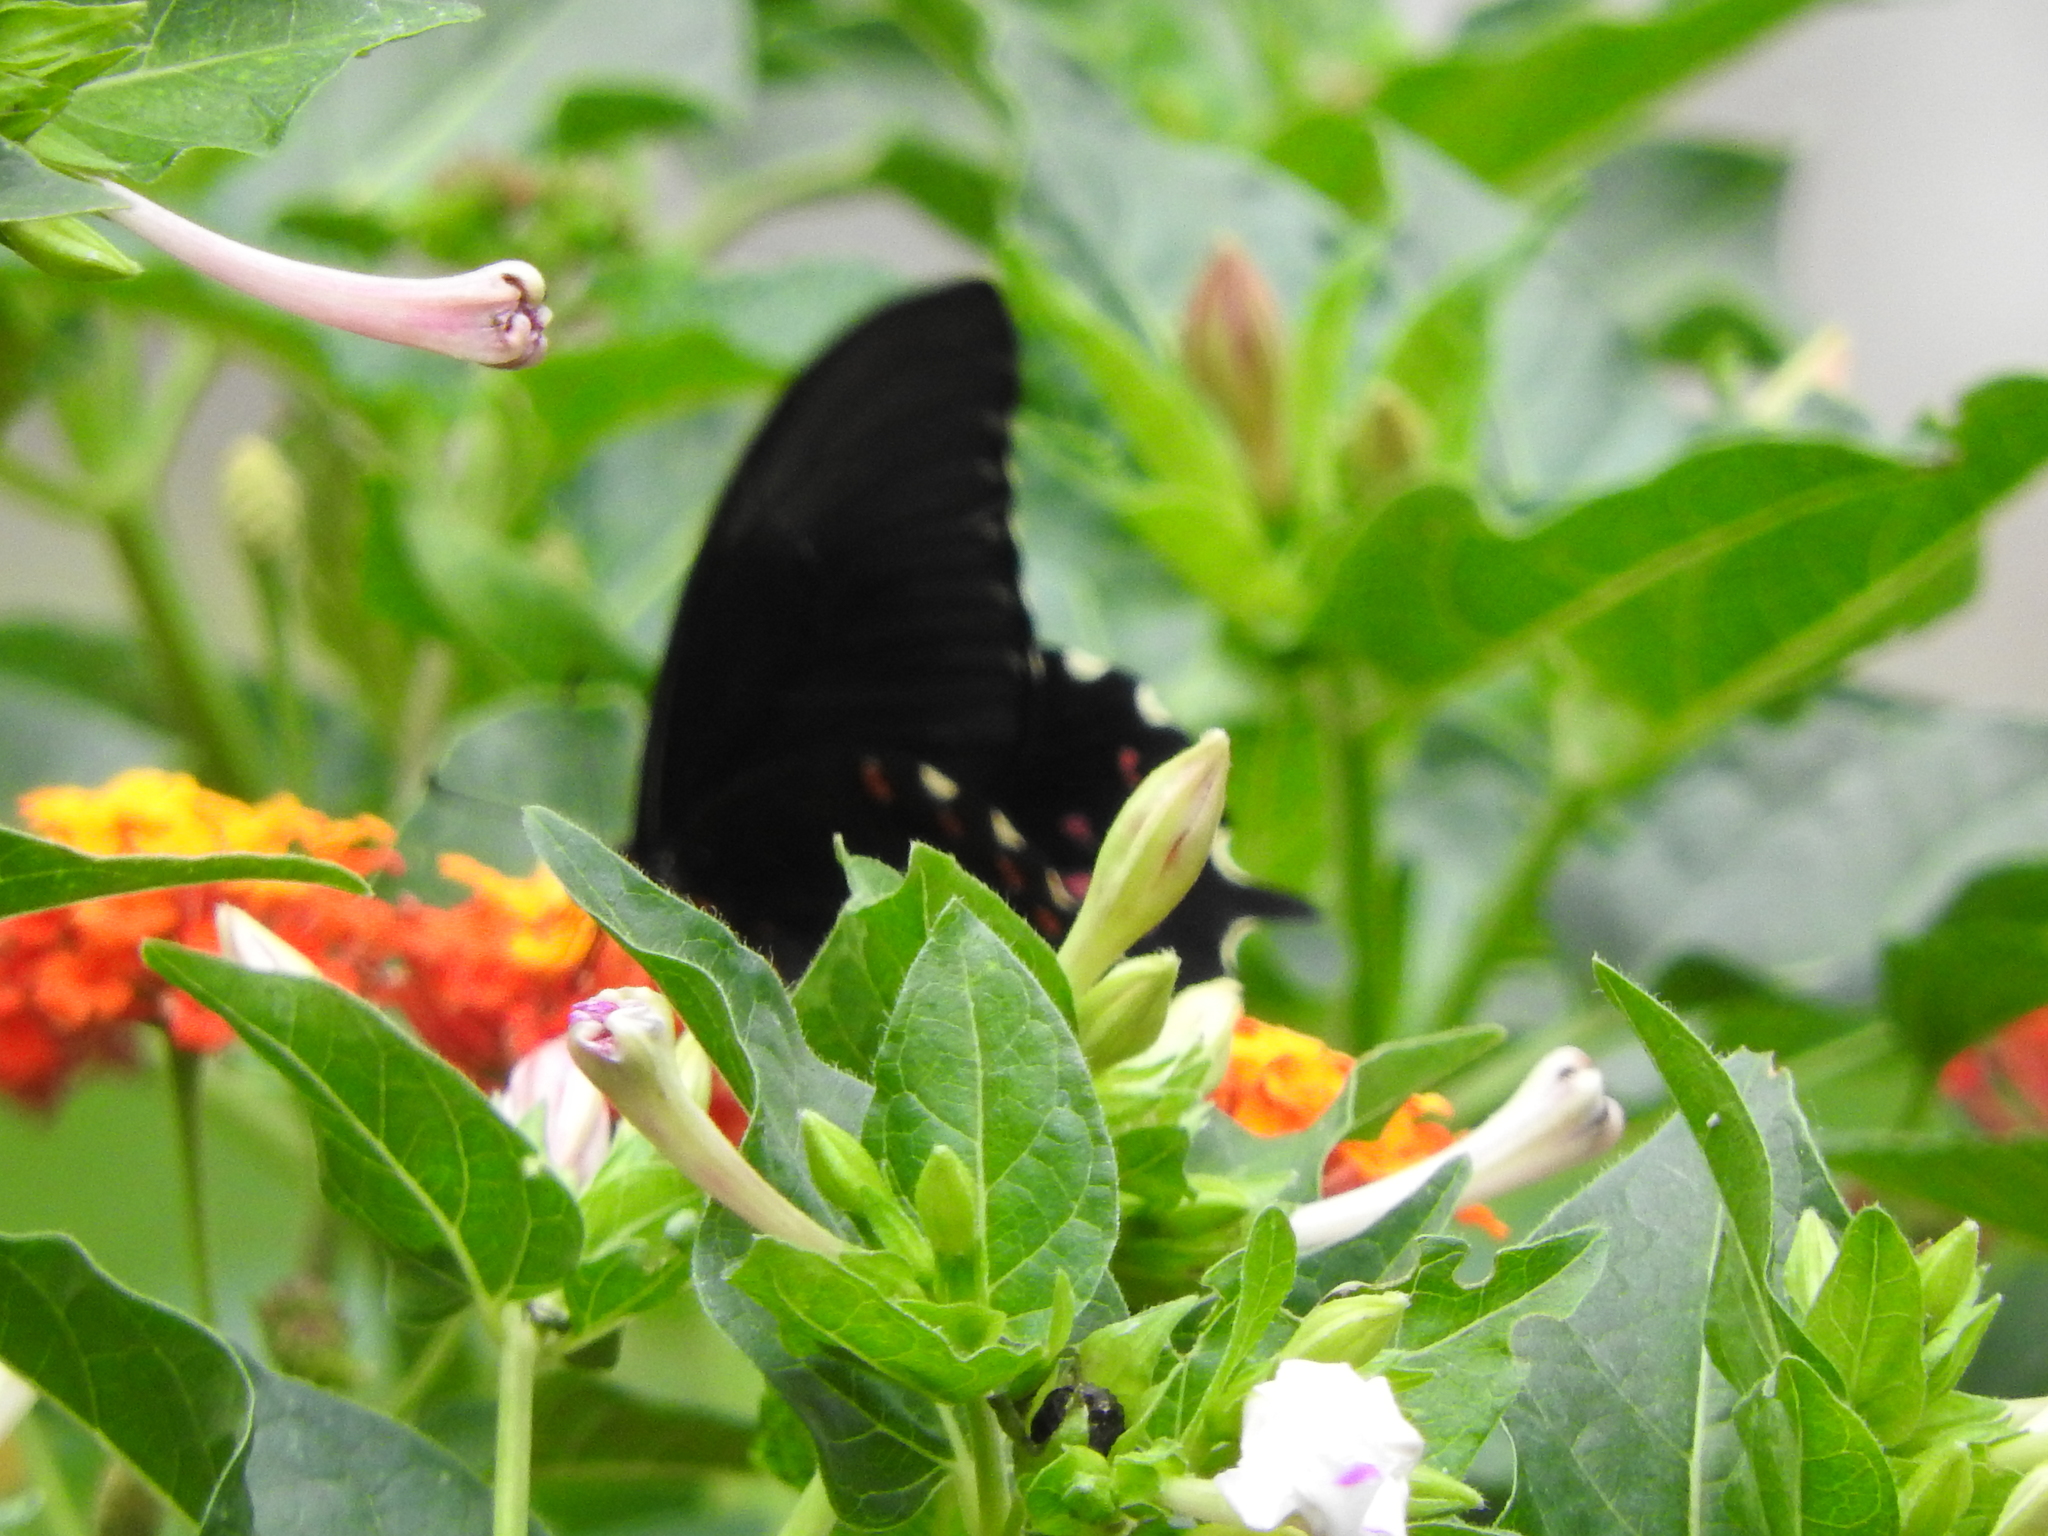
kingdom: Animalia
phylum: Arthropoda
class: Insecta
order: Lepidoptera
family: Papilionidae
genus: Heraclides
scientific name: Heraclides rogeri
